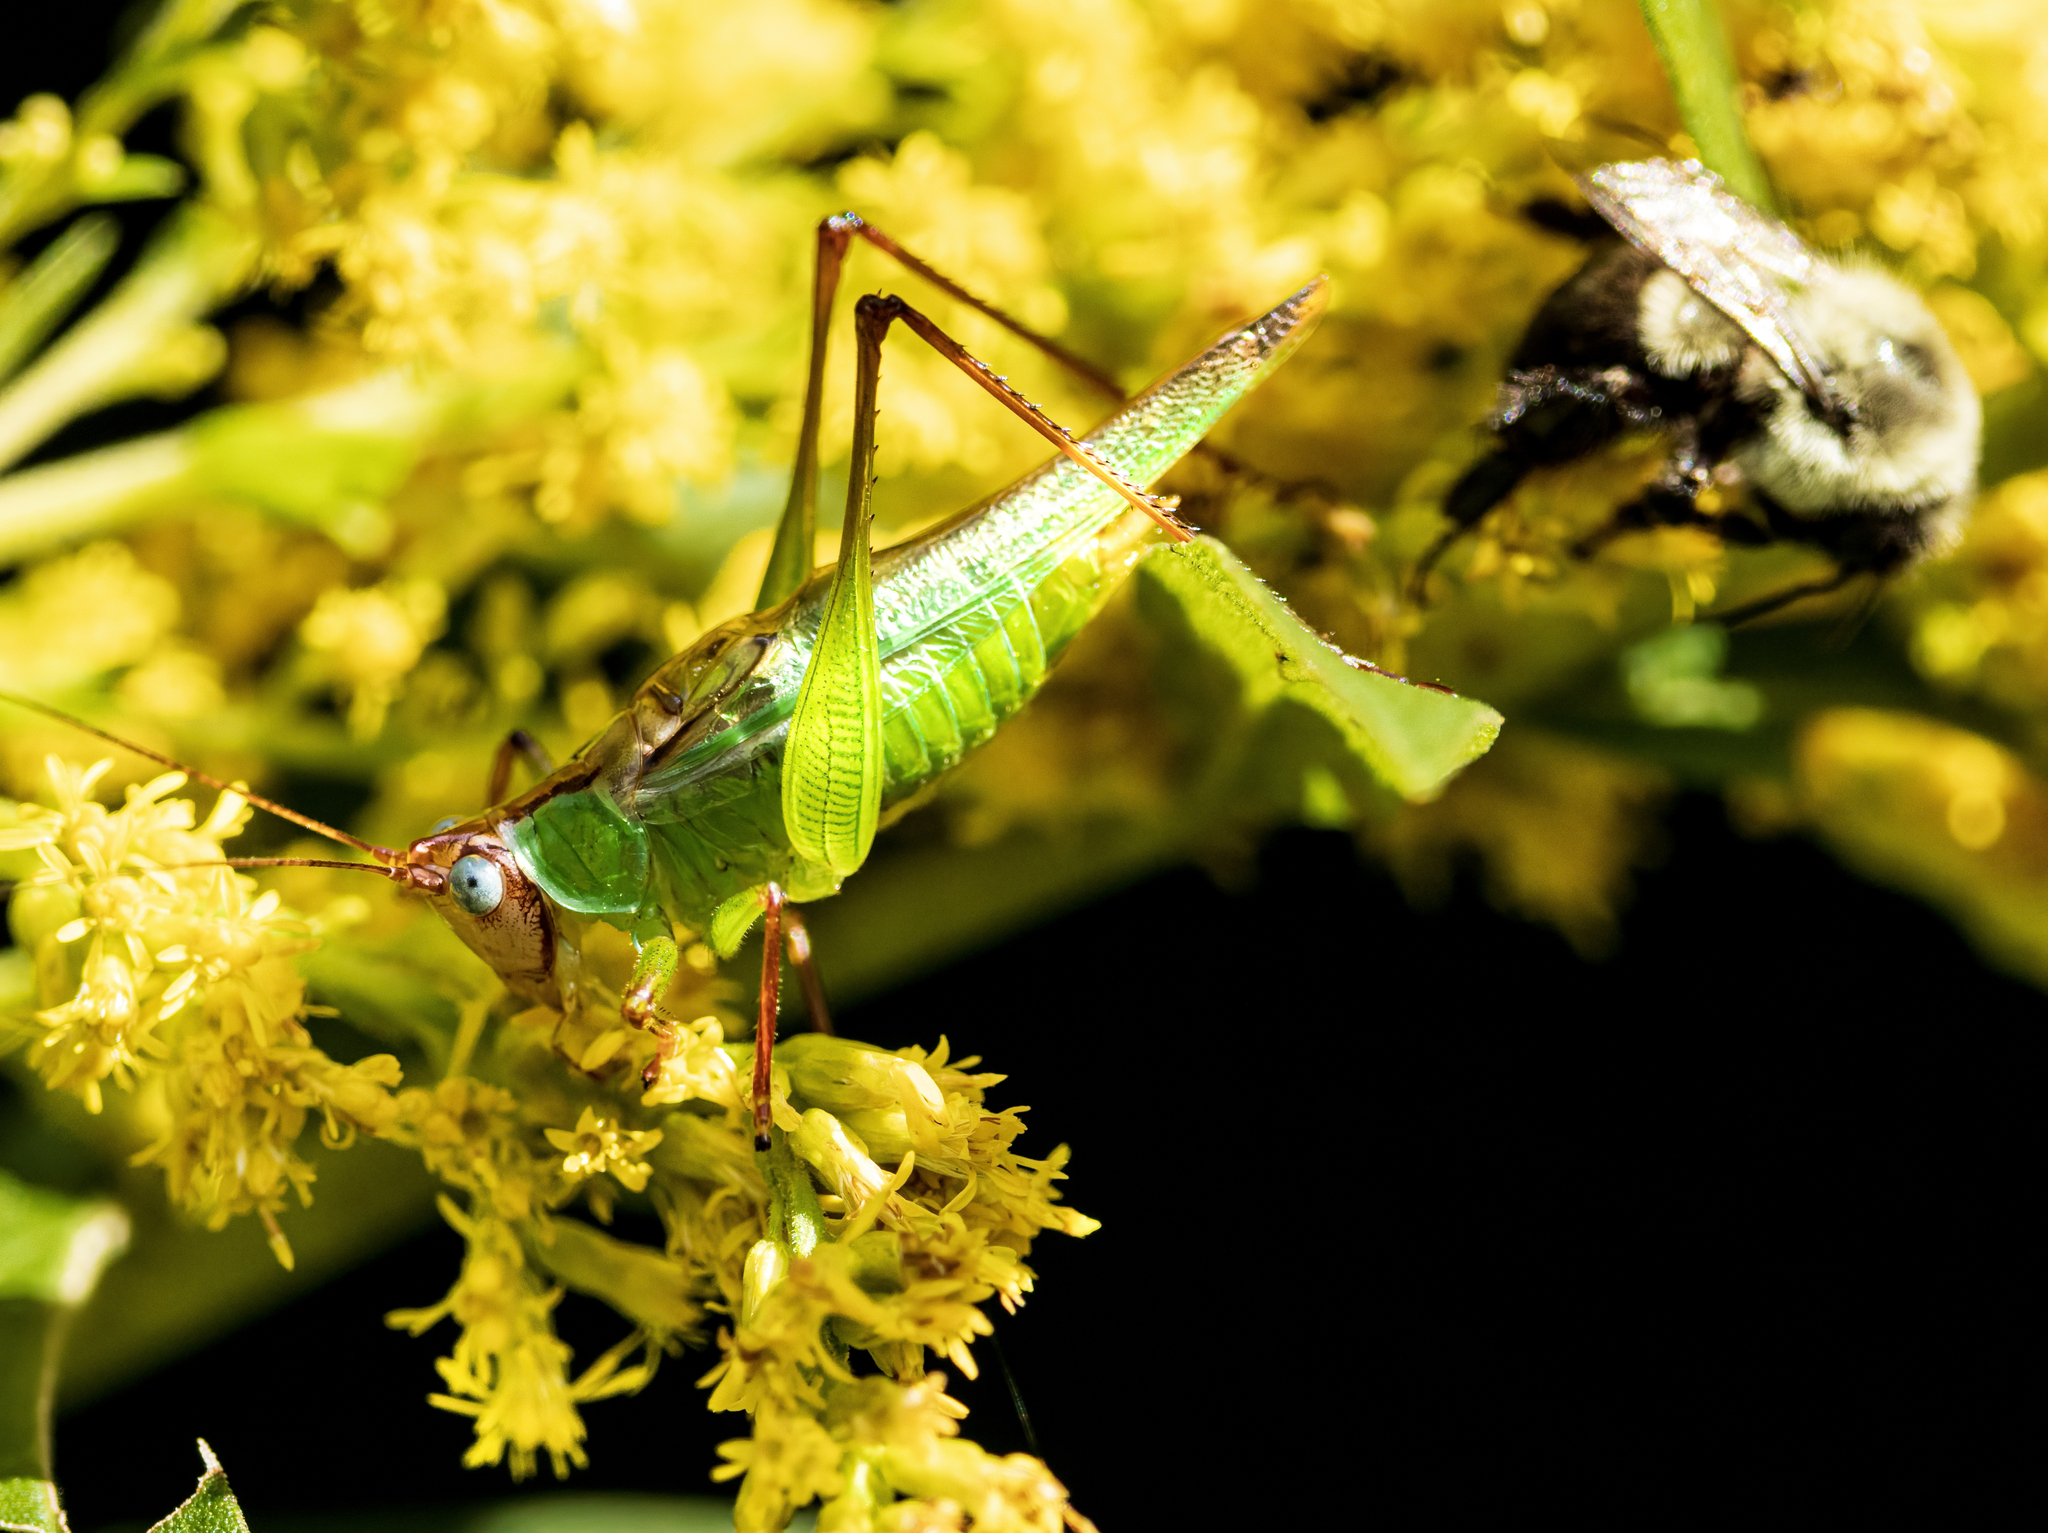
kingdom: Animalia
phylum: Arthropoda
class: Insecta
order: Orthoptera
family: Tettigoniidae
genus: Orchelimum
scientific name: Orchelimum pulchellum
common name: Handsome meadow katydid
